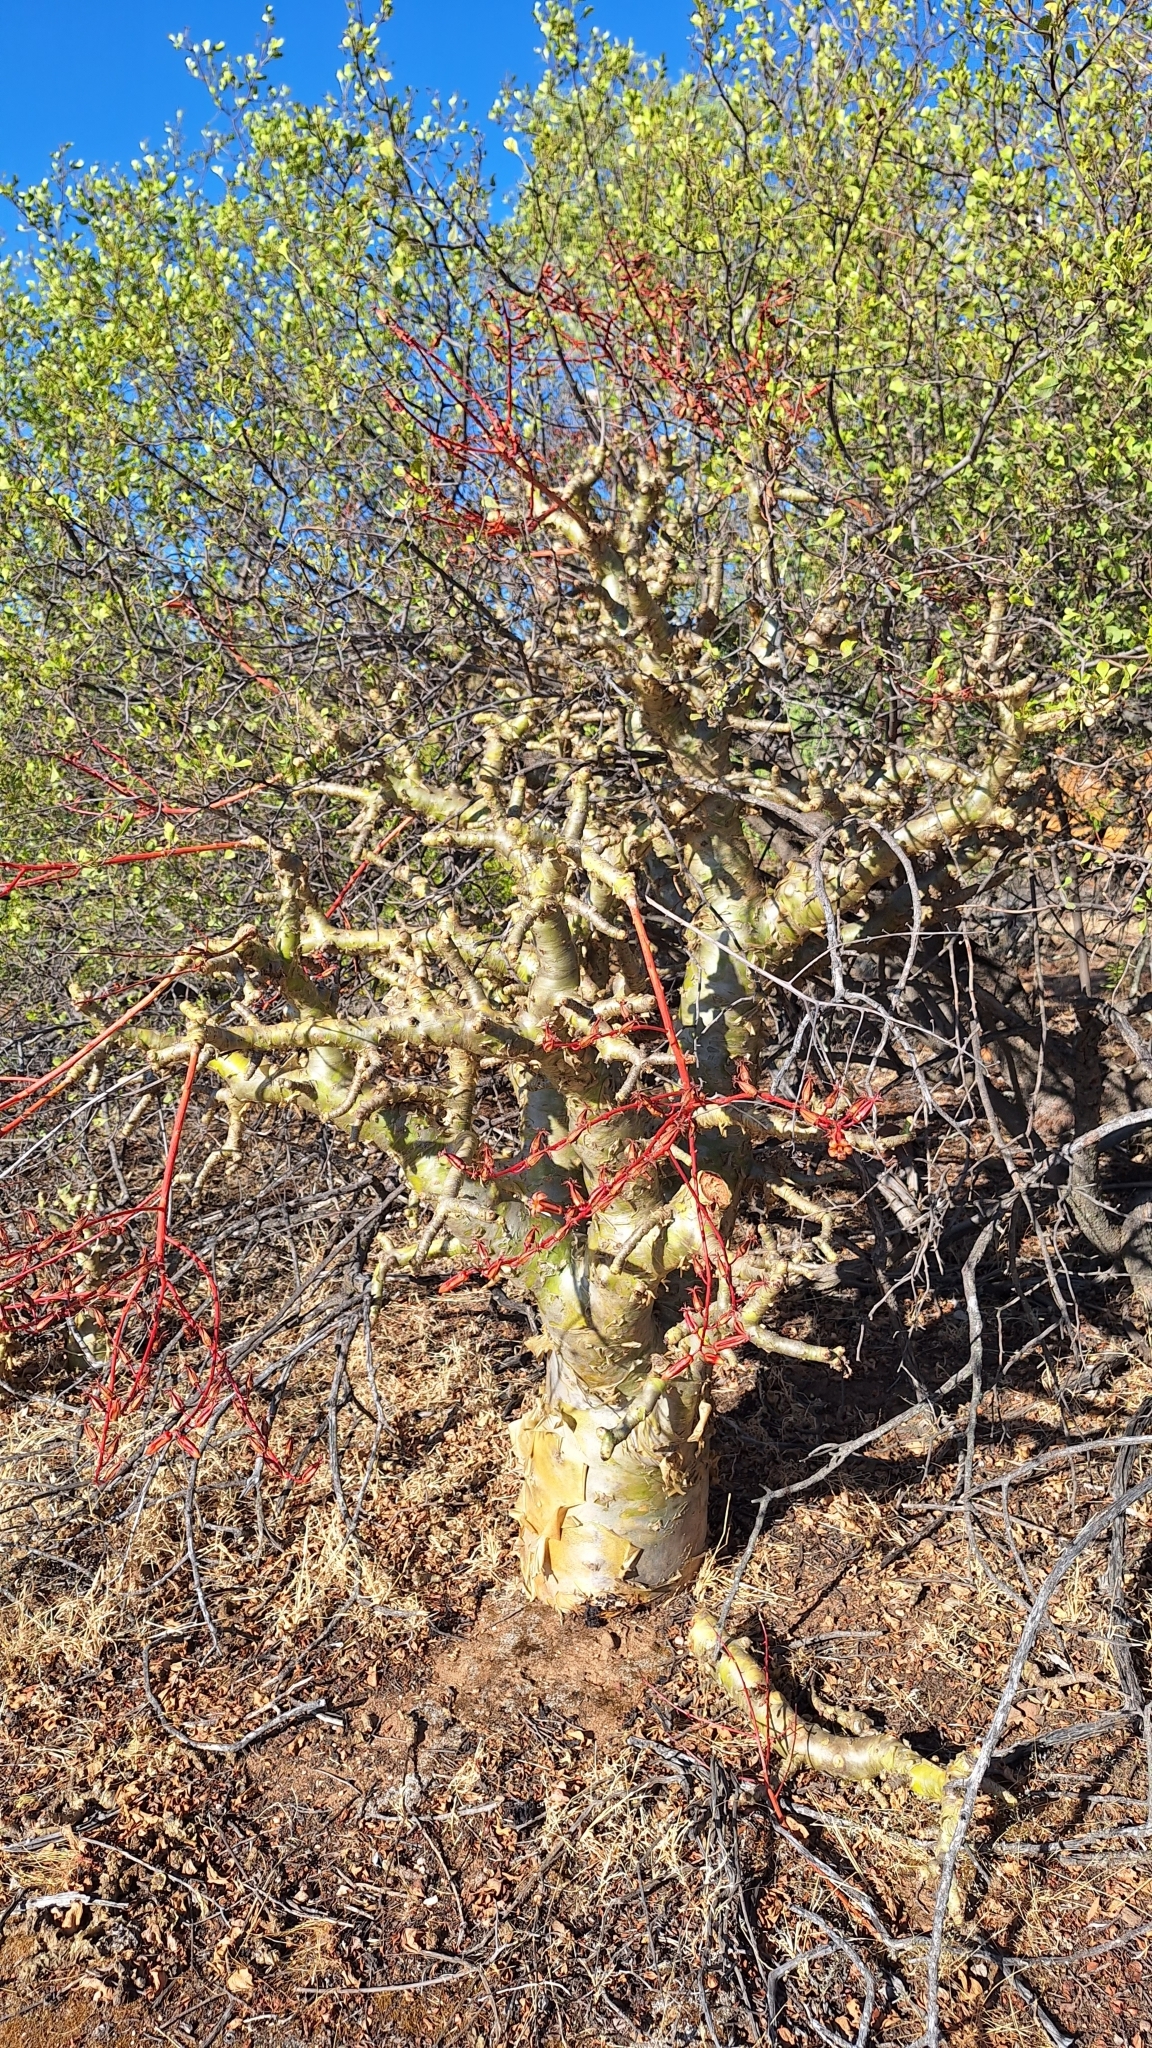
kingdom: Plantae
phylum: Tracheophyta
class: Magnoliopsida
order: Saxifragales
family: Crassulaceae
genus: Tylecodon
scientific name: Tylecodon paniculatus
